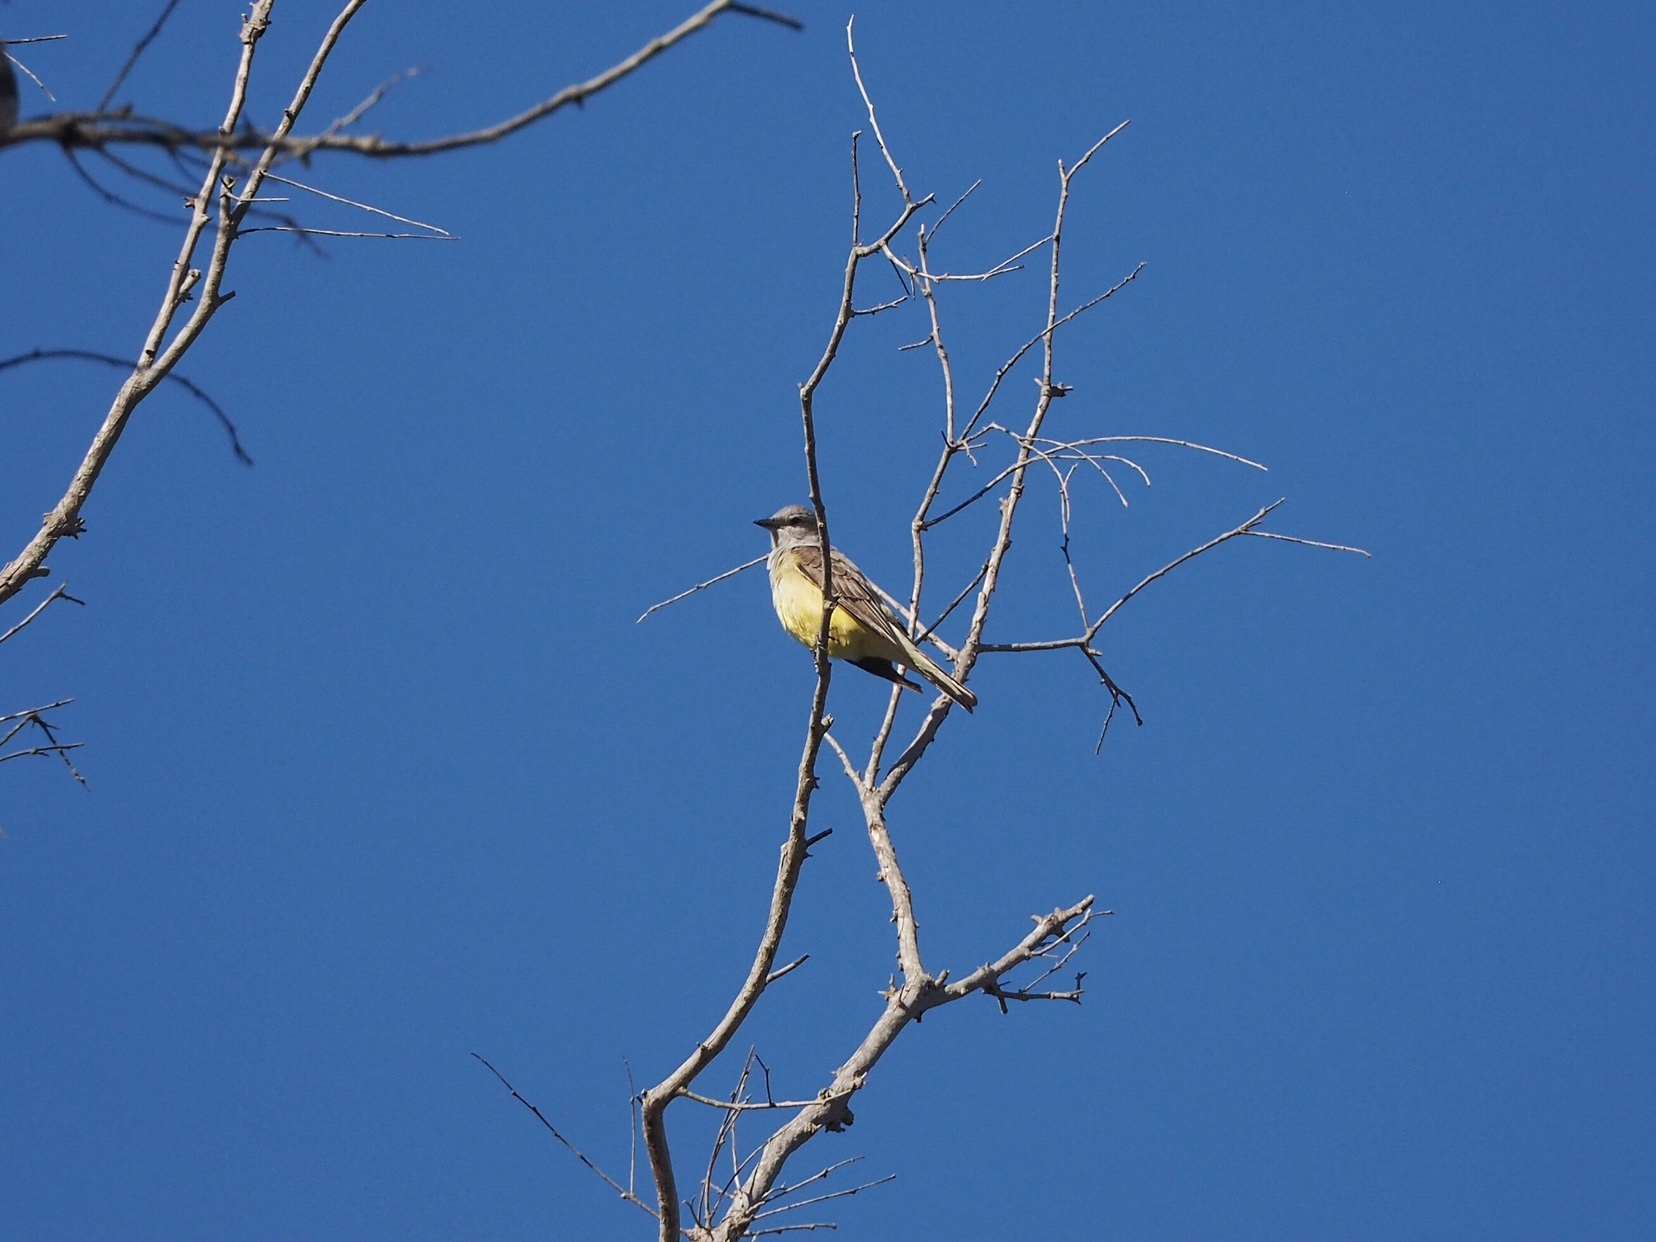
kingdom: Animalia
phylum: Chordata
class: Aves
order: Passeriformes
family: Tyrannidae
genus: Tyrannus
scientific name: Tyrannus verticalis
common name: Western kingbird
